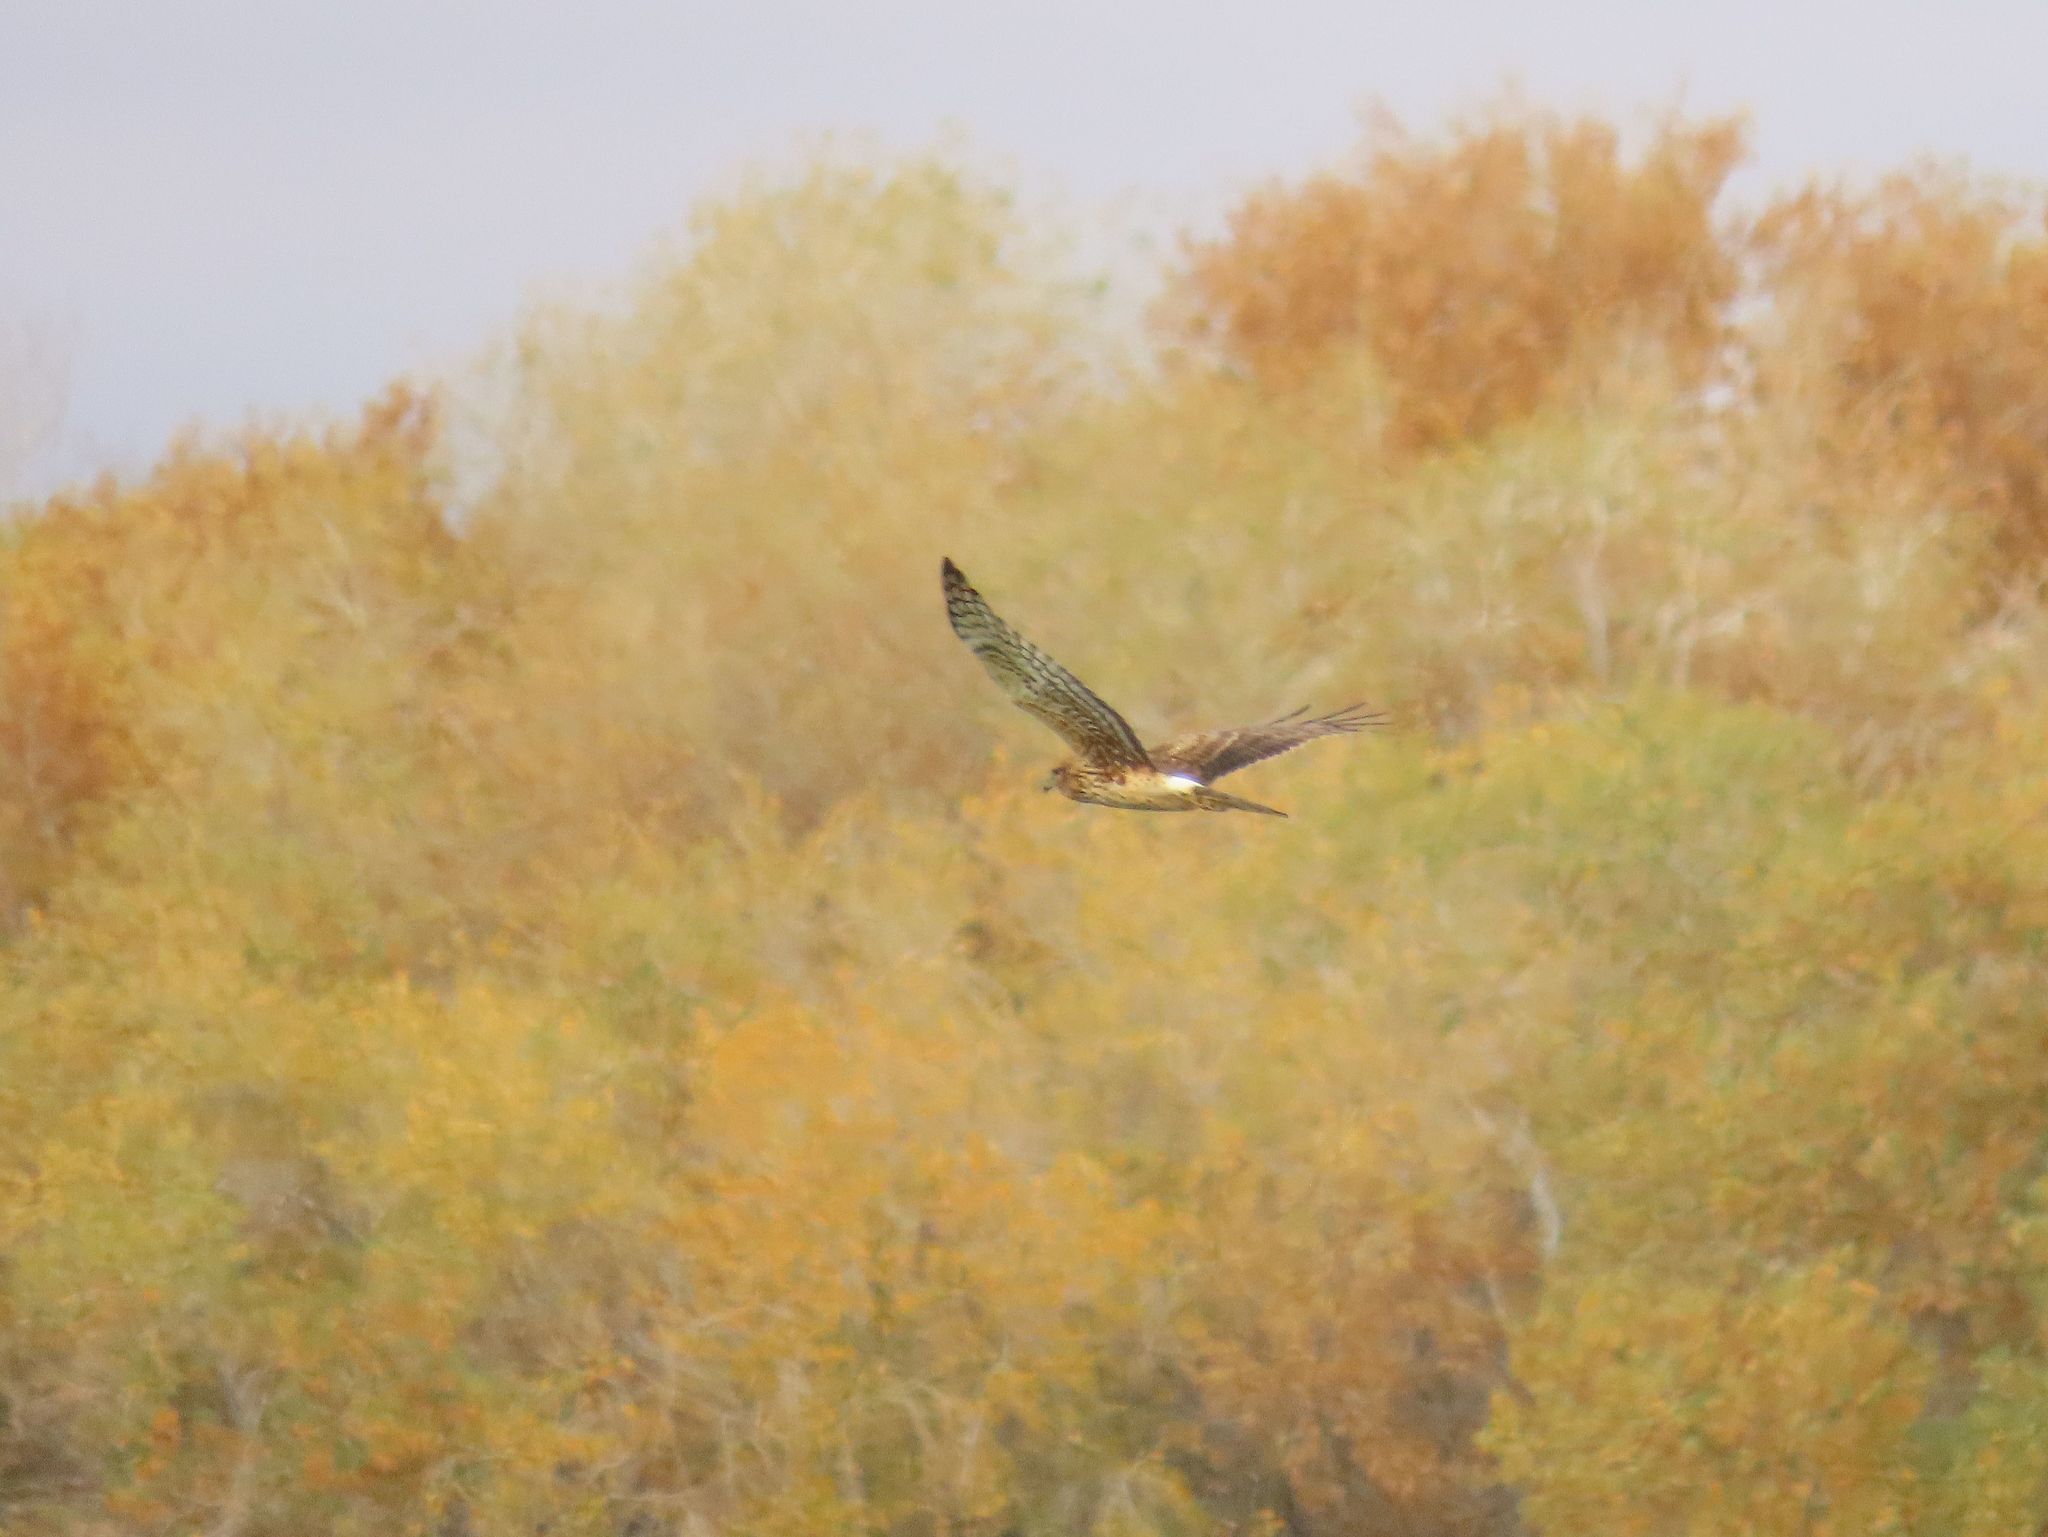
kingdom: Animalia
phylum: Chordata
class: Aves
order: Accipitriformes
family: Accipitridae
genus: Circus
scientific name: Circus cyaneus
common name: Hen harrier
